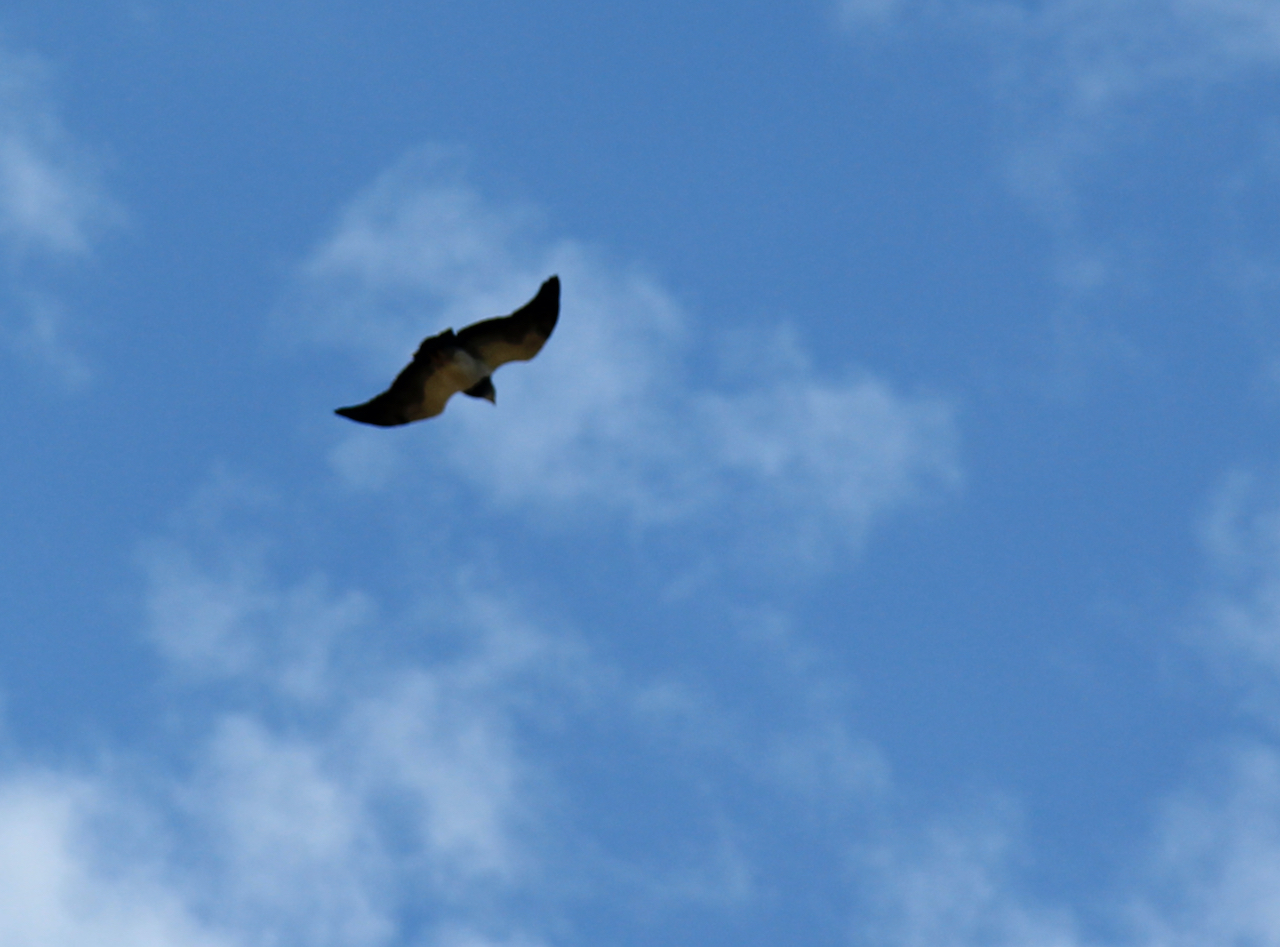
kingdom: Animalia
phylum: Chordata
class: Aves
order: Accipitriformes
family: Accipitridae
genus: Geranoaetus
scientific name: Geranoaetus melanoleucus
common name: Black-chested buzzard-eagle
